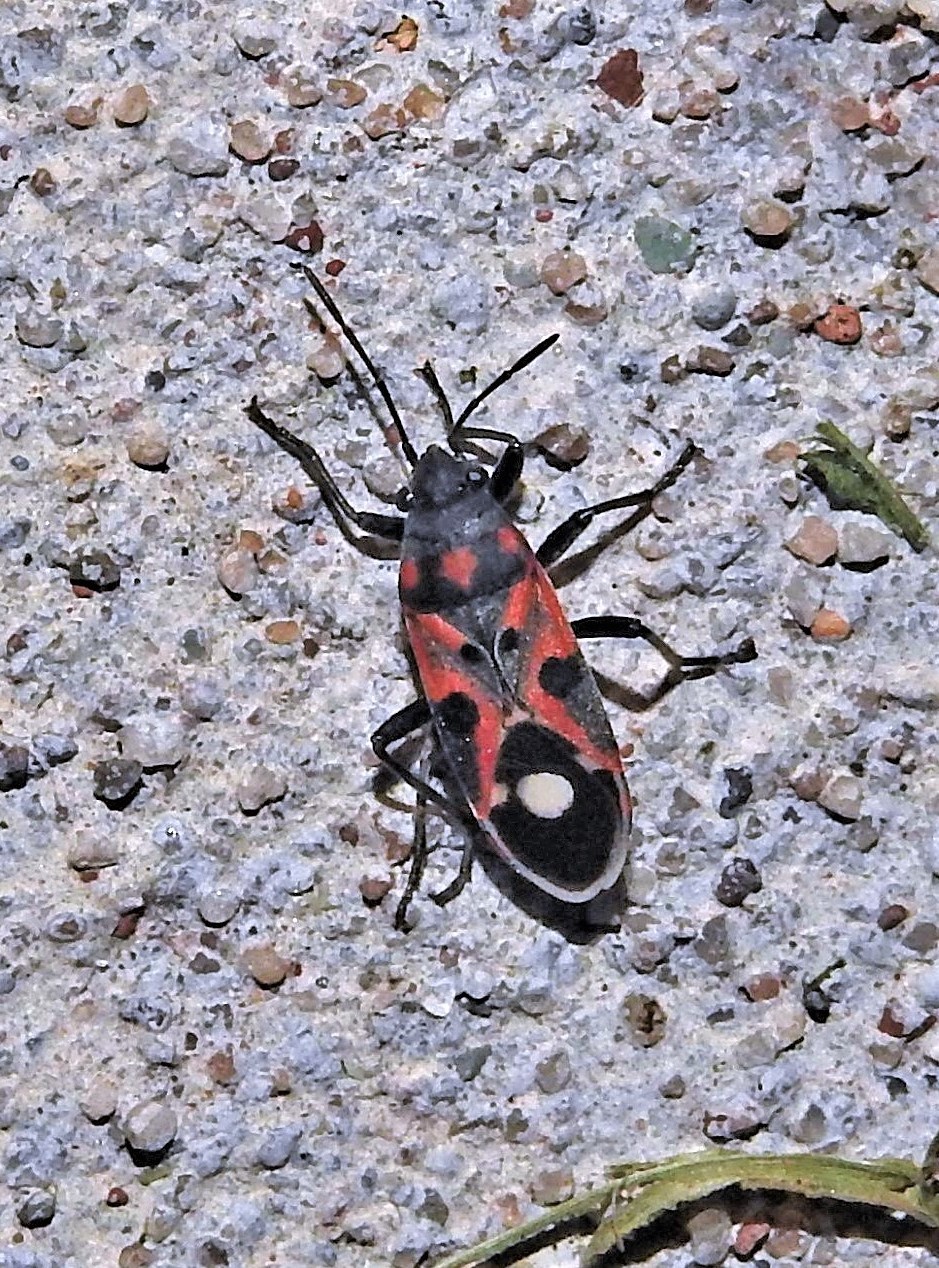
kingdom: Animalia
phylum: Arthropoda
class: Insecta
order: Hemiptera
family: Lygaeidae
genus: Lygaeus
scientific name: Lygaeus alboornatus
